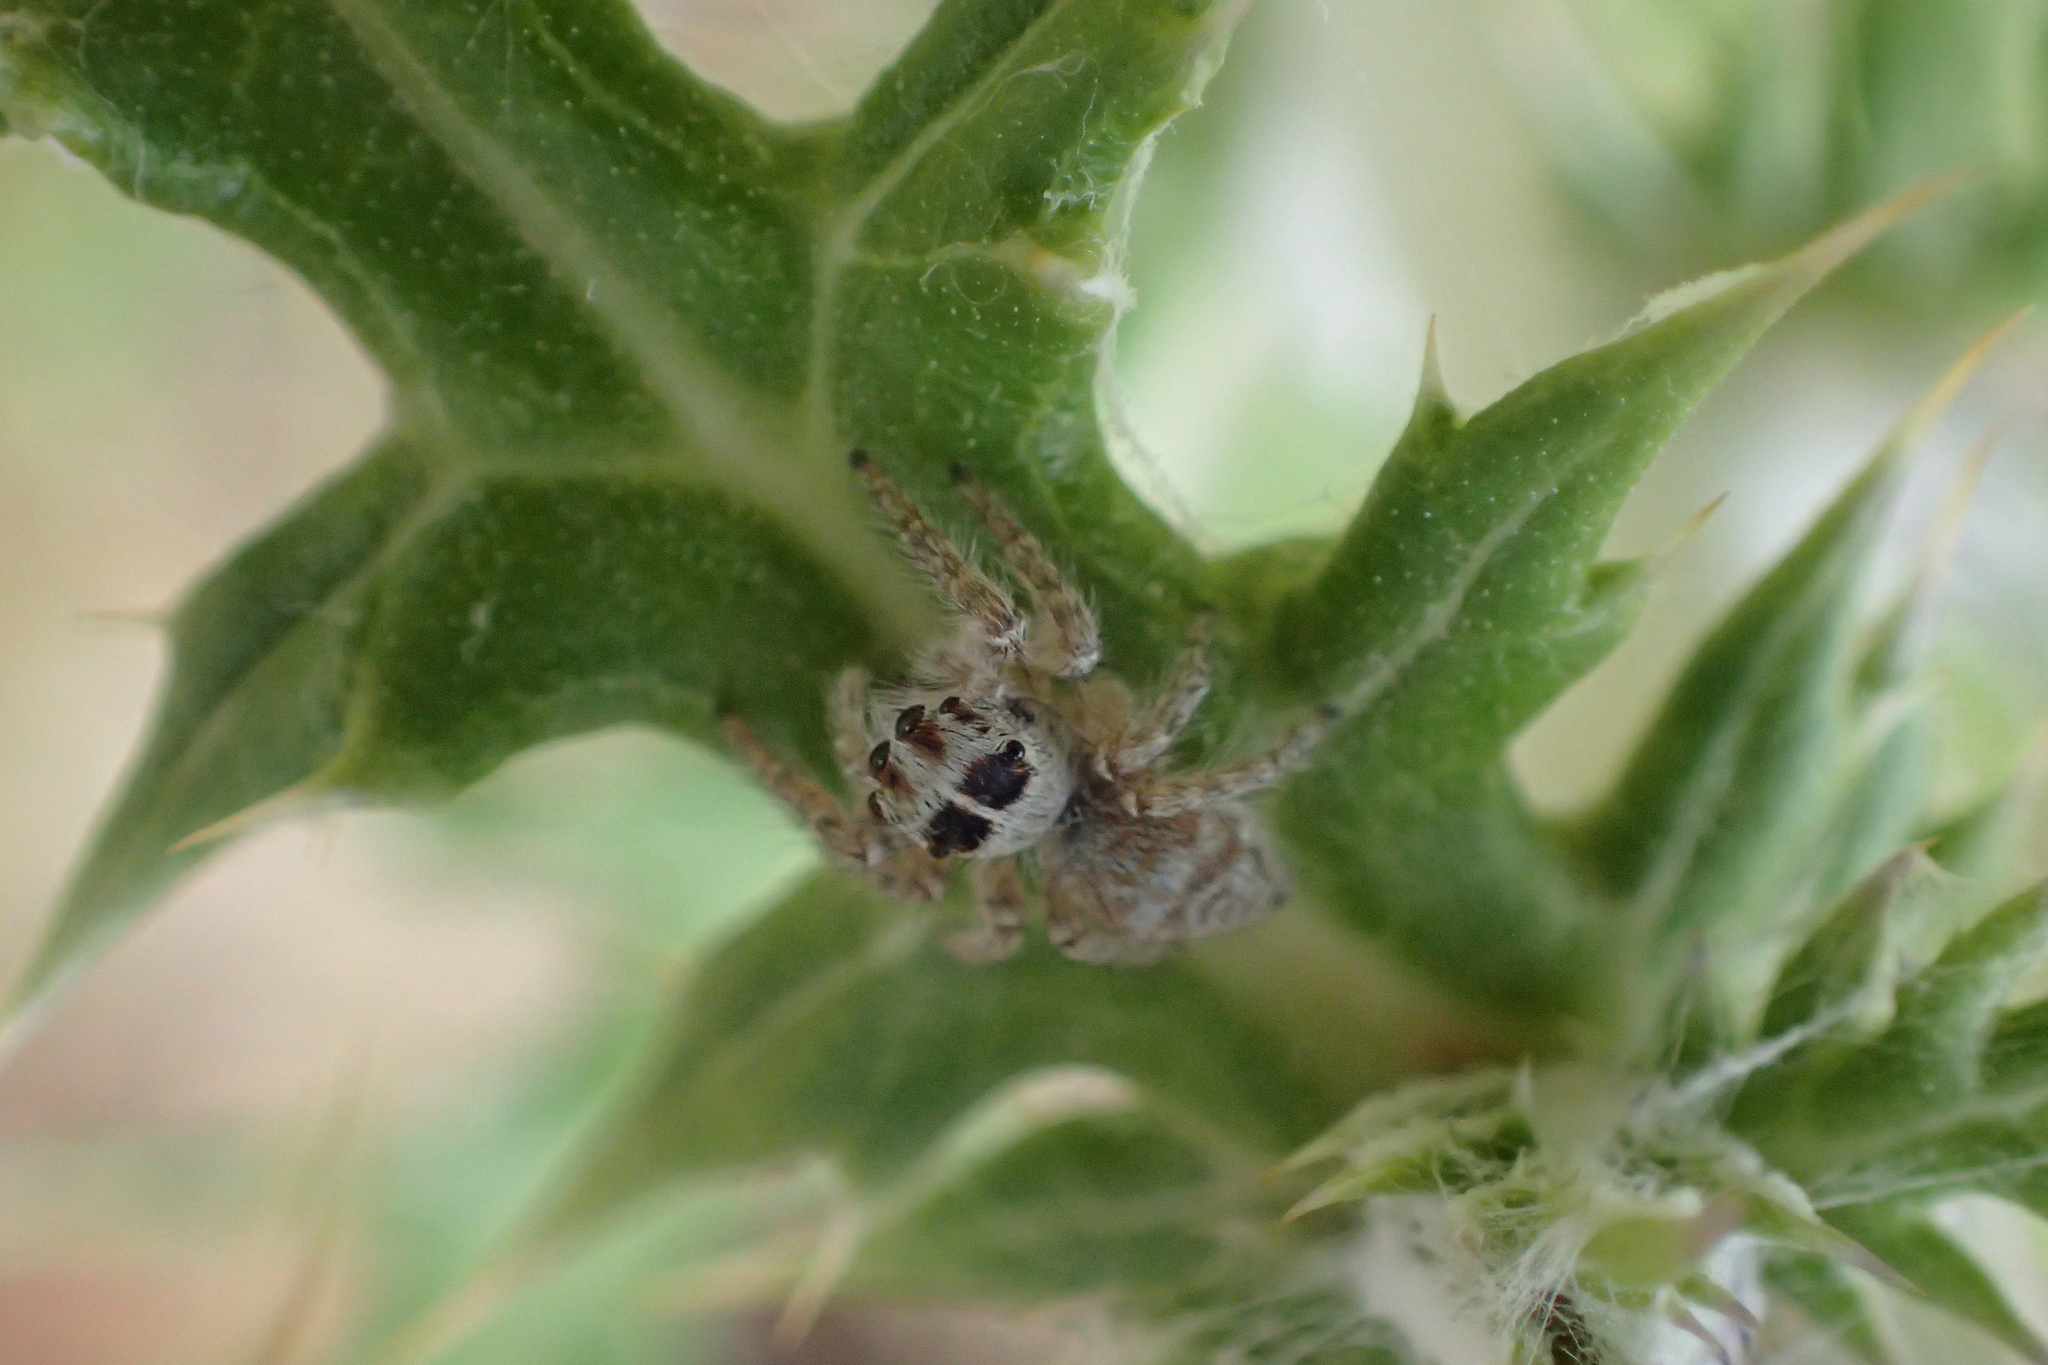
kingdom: Animalia
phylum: Arthropoda
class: Arachnida
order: Araneae
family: Salticidae
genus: Philaeus
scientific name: Philaeus chrysops
